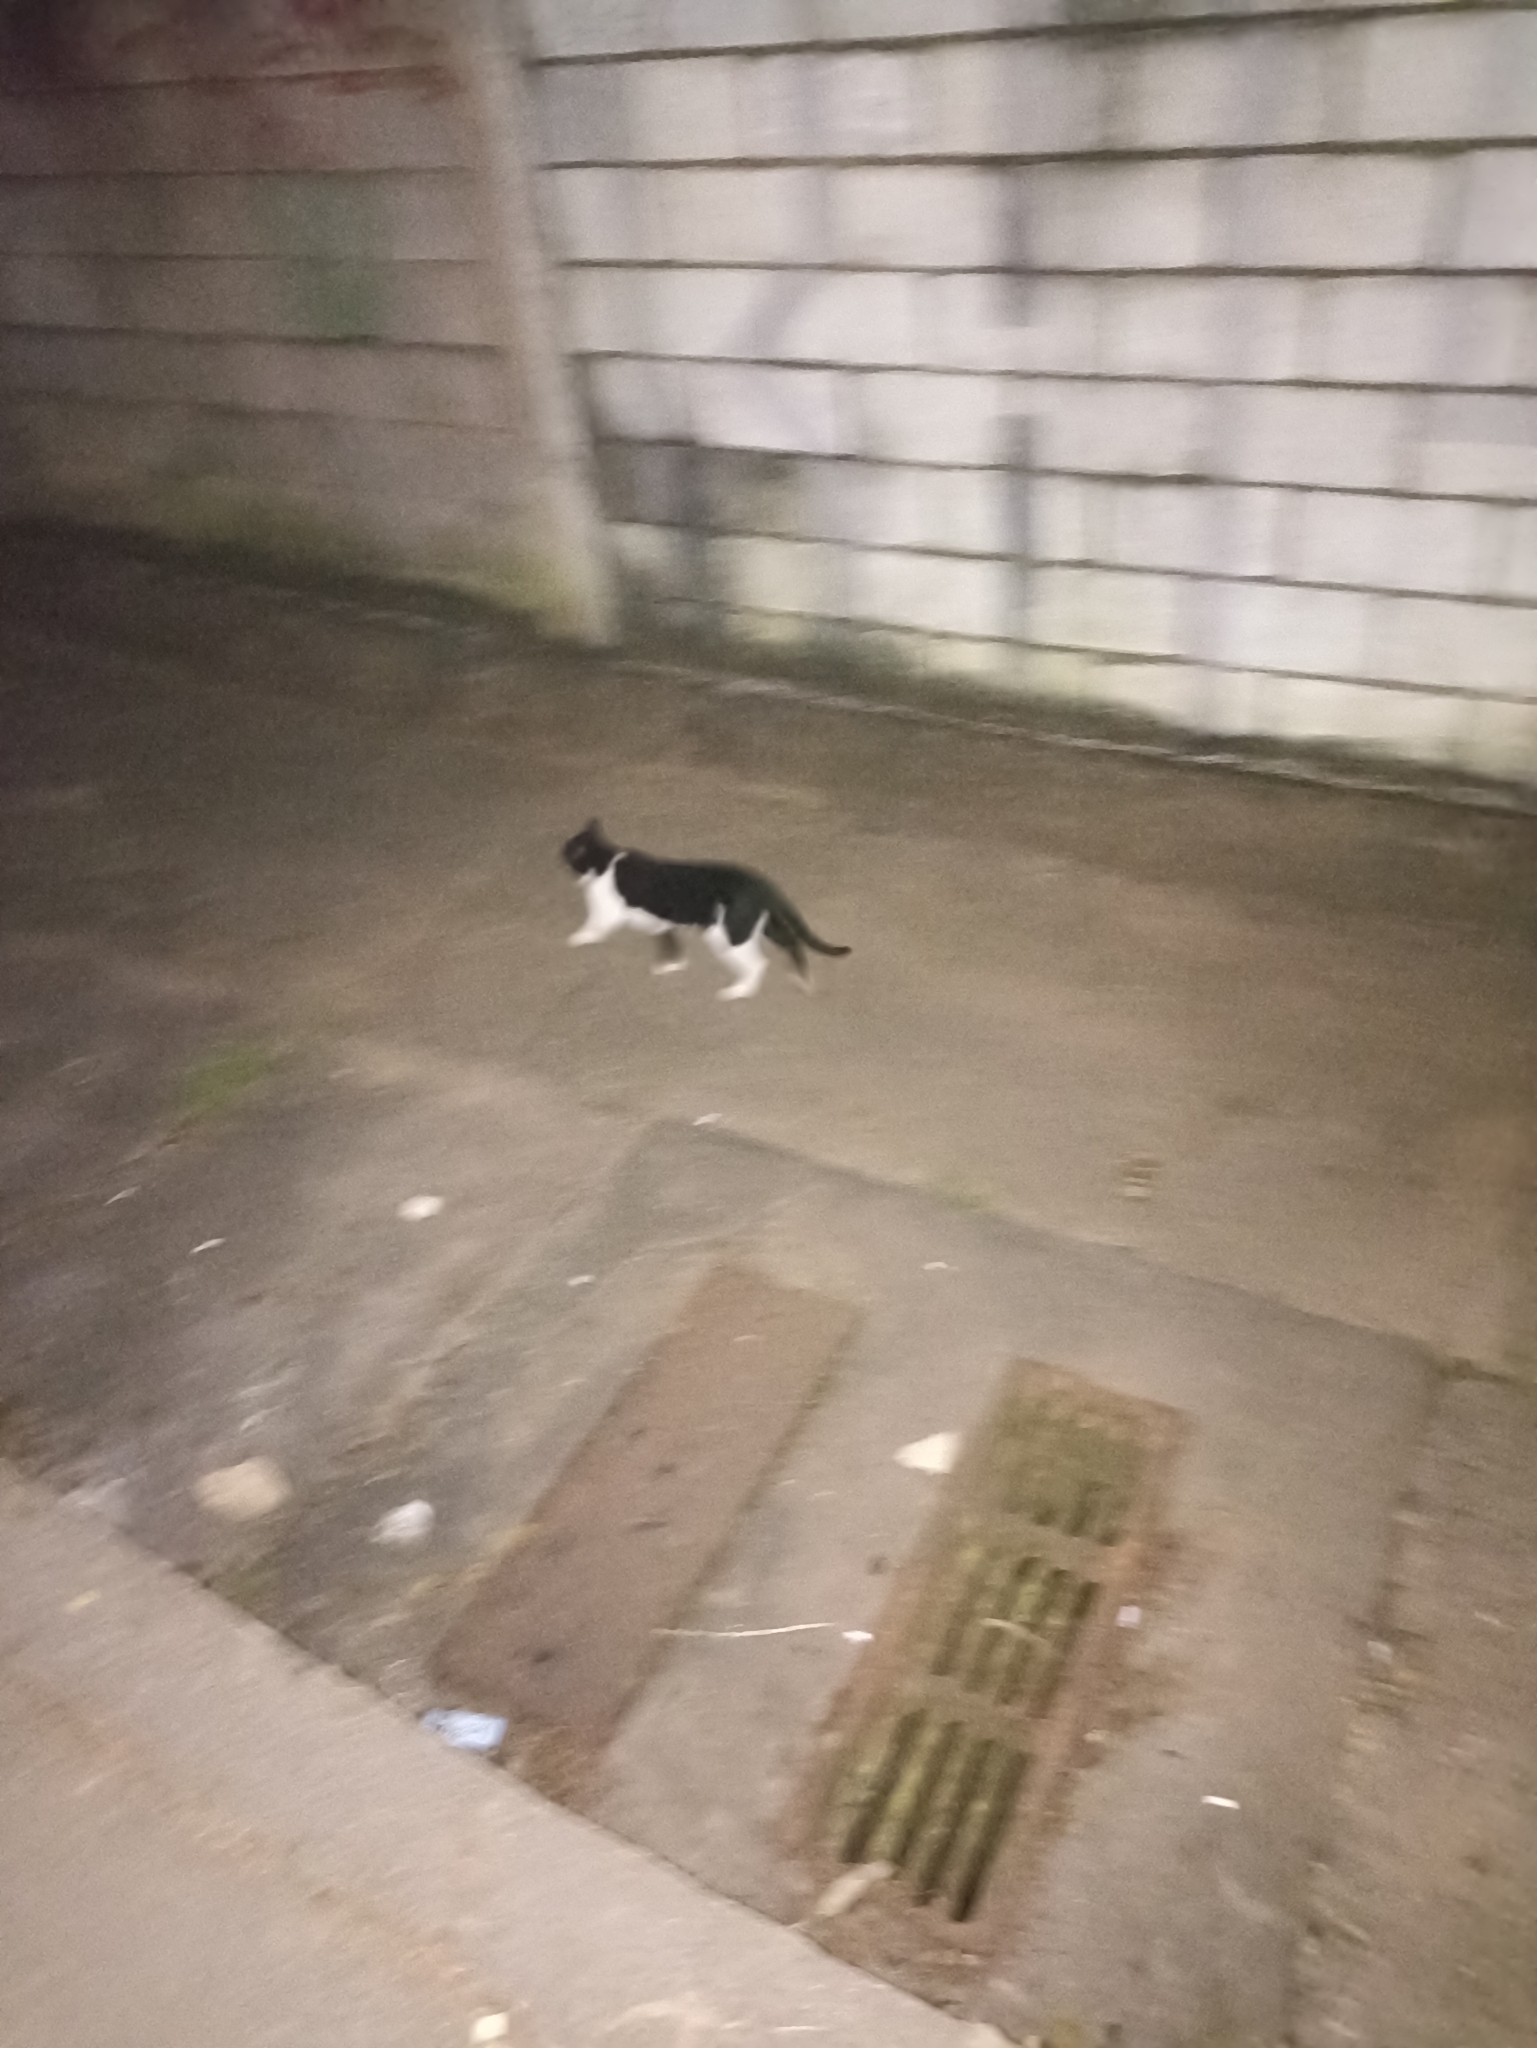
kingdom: Animalia
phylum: Chordata
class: Mammalia
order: Carnivora
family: Felidae
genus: Felis
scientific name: Felis catus
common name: Domestic cat
